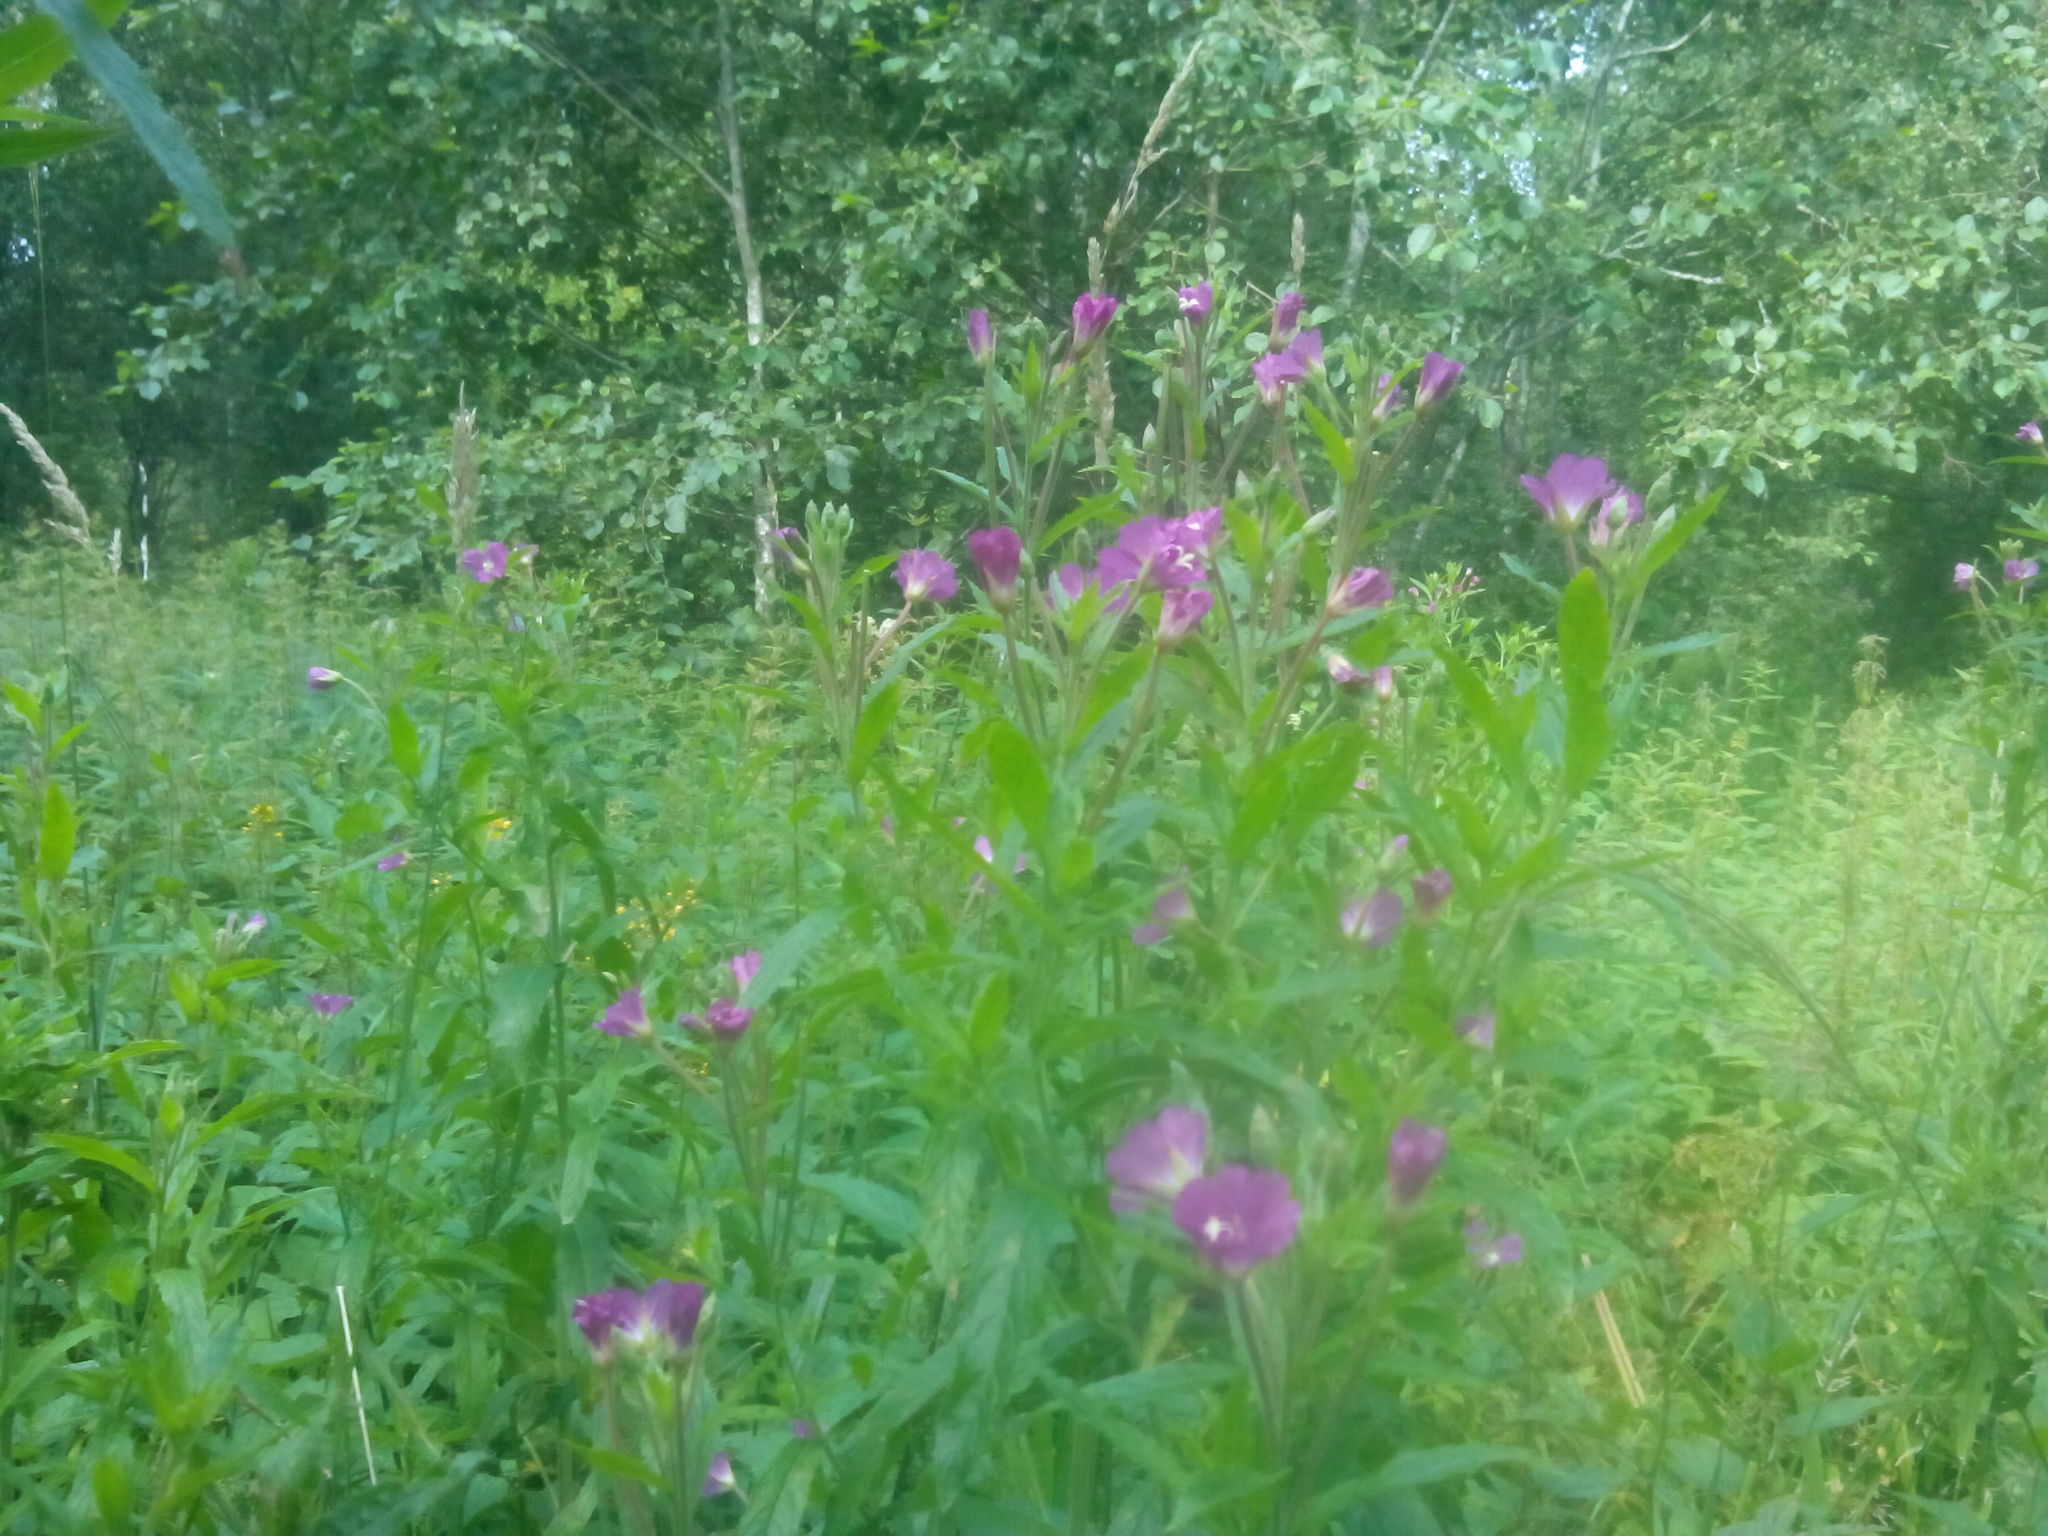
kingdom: Plantae
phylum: Tracheophyta
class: Magnoliopsida
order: Myrtales
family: Onagraceae
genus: Epilobium
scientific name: Epilobium hirsutum
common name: Great willowherb
